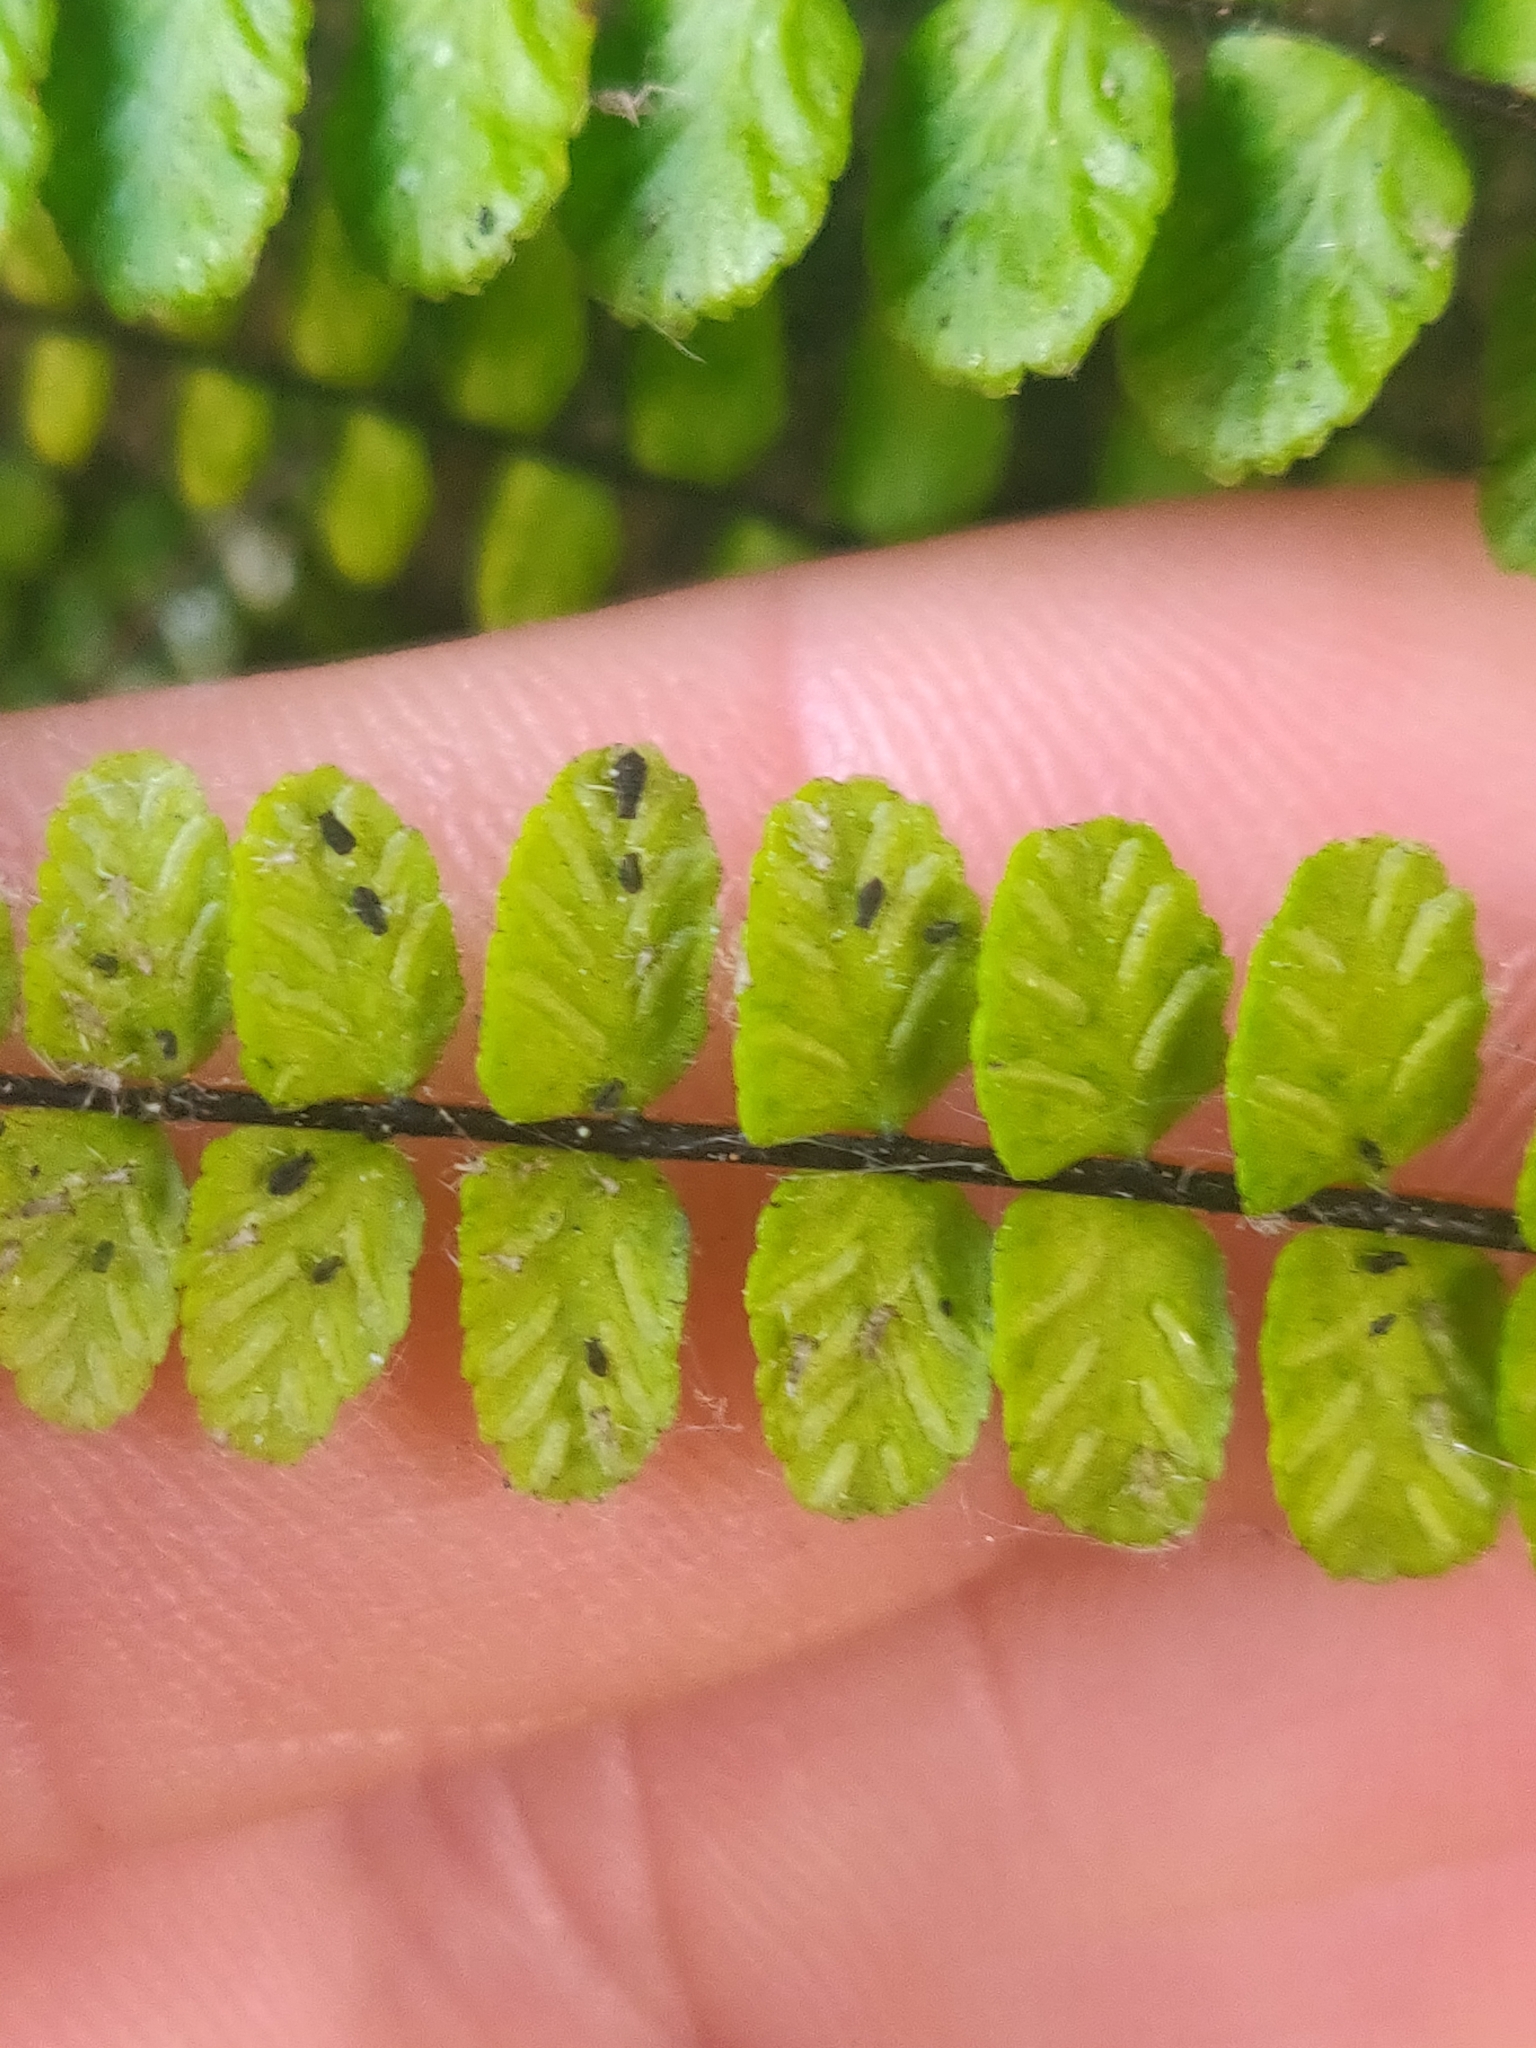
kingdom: Plantae
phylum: Tracheophyta
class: Polypodiopsida
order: Polypodiales
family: Aspleniaceae
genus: Asplenium
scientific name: Asplenium trichomanes
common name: Maidenhair spleenwort
